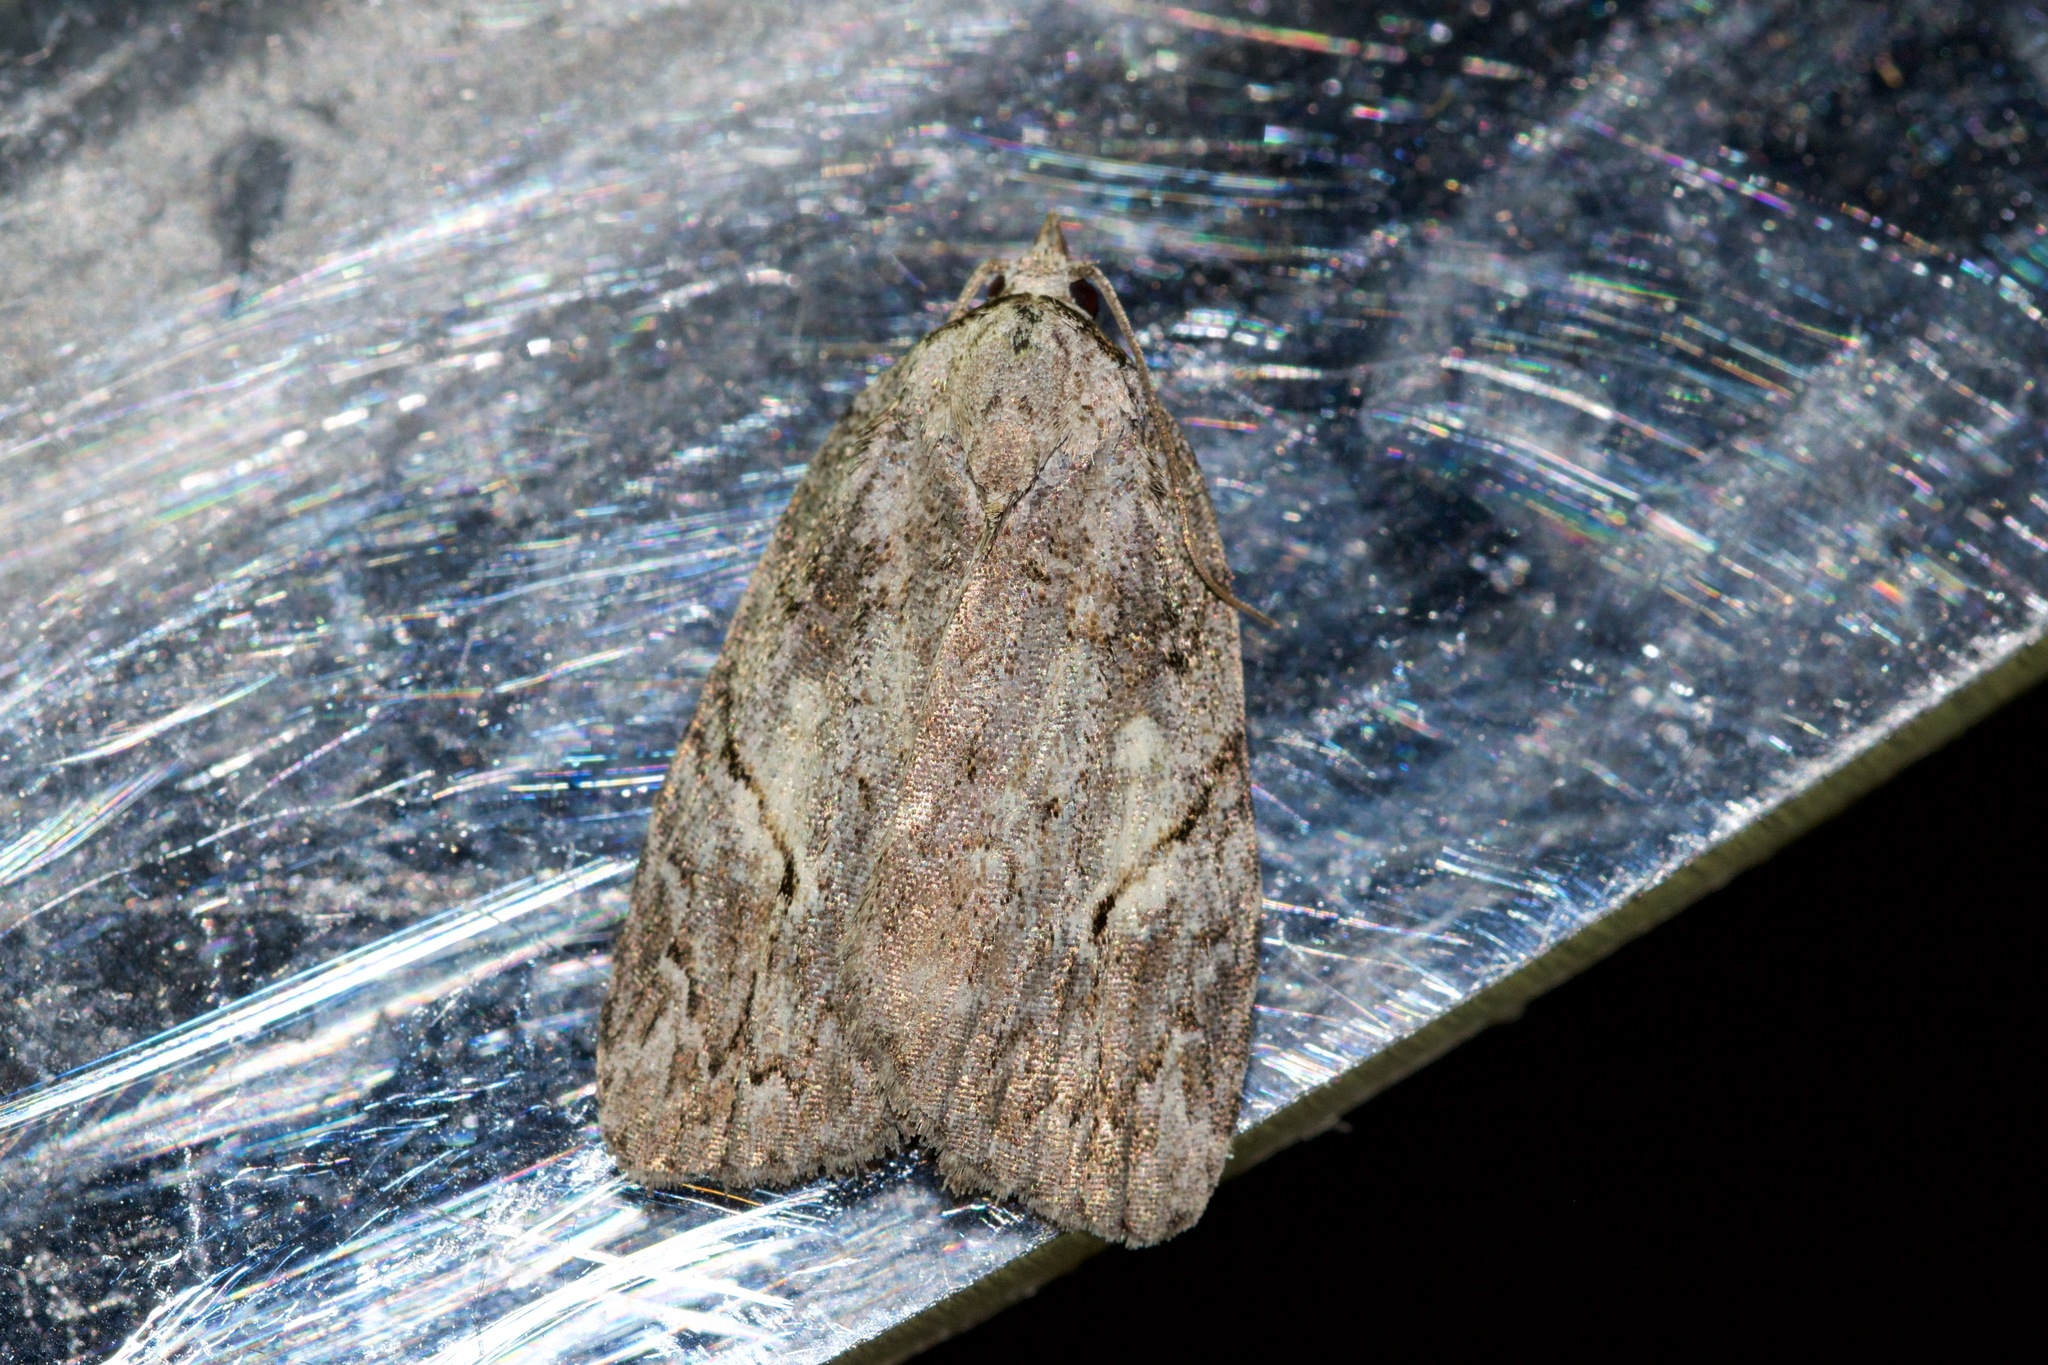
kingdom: Animalia
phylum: Arthropoda
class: Insecta
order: Lepidoptera
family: Noctuidae
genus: Balsa
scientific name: Balsa labecula
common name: White-blotched balsa moth
